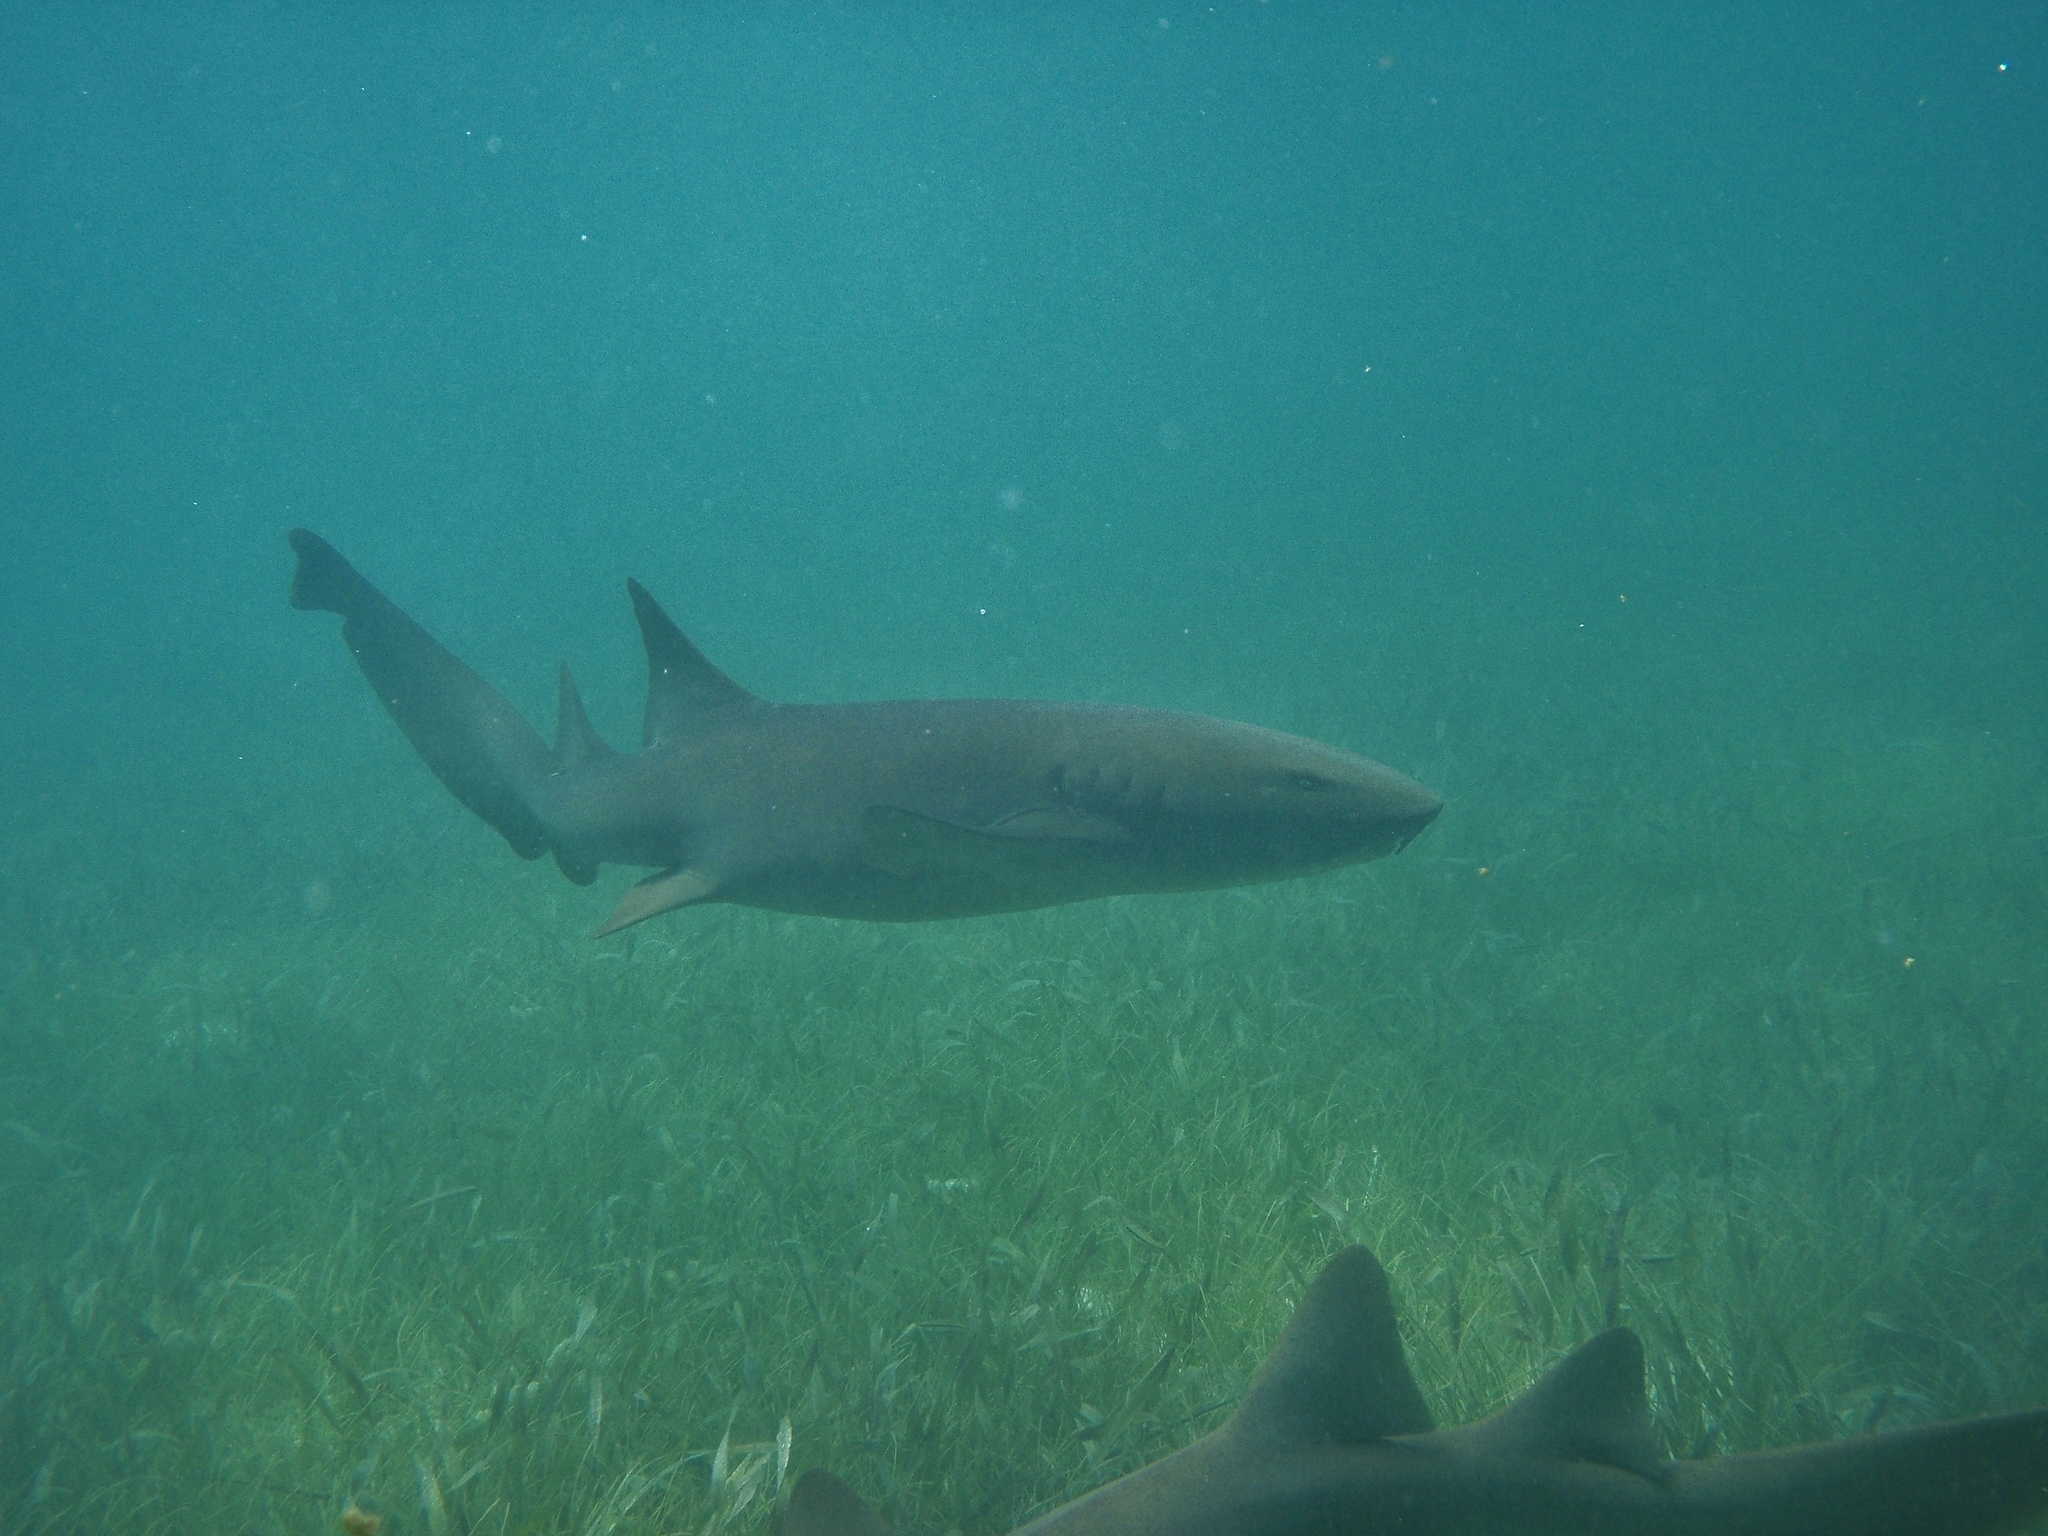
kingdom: Animalia
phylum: Chordata
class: Elasmobranchii
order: Orectolobiformes
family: Ginglymostomatidae
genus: Ginglymostoma
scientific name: Ginglymostoma cirratum
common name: Nurse shark
